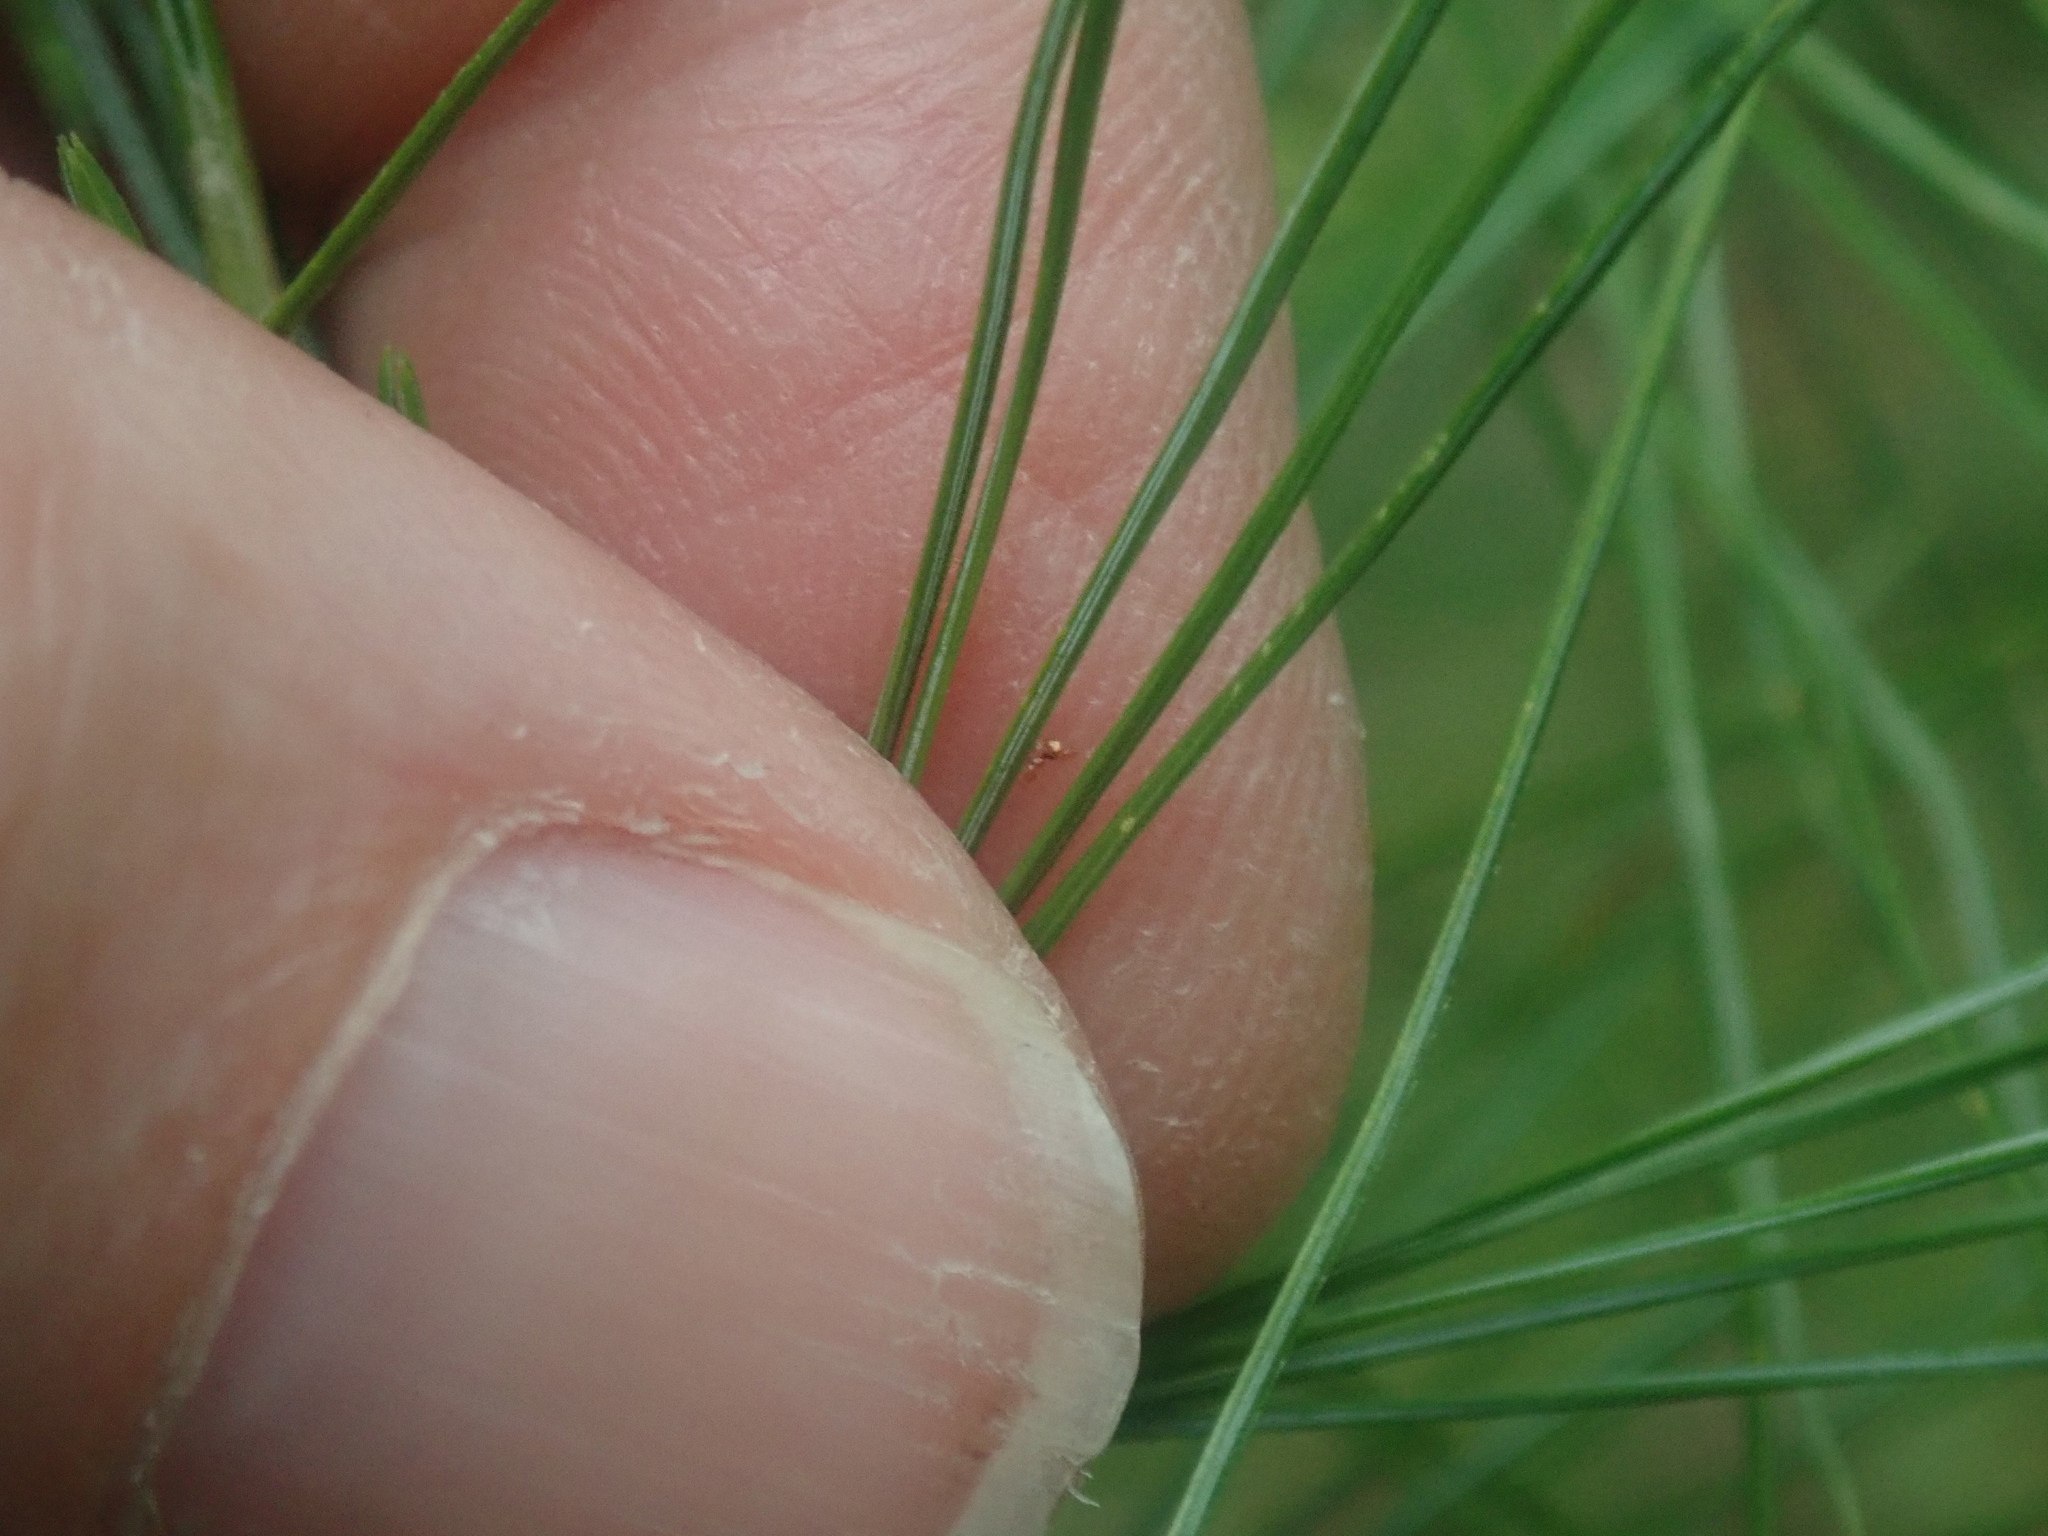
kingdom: Plantae
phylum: Tracheophyta
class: Pinopsida
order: Pinales
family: Pinaceae
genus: Pinus
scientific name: Pinus strobus
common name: Weymouth pine
